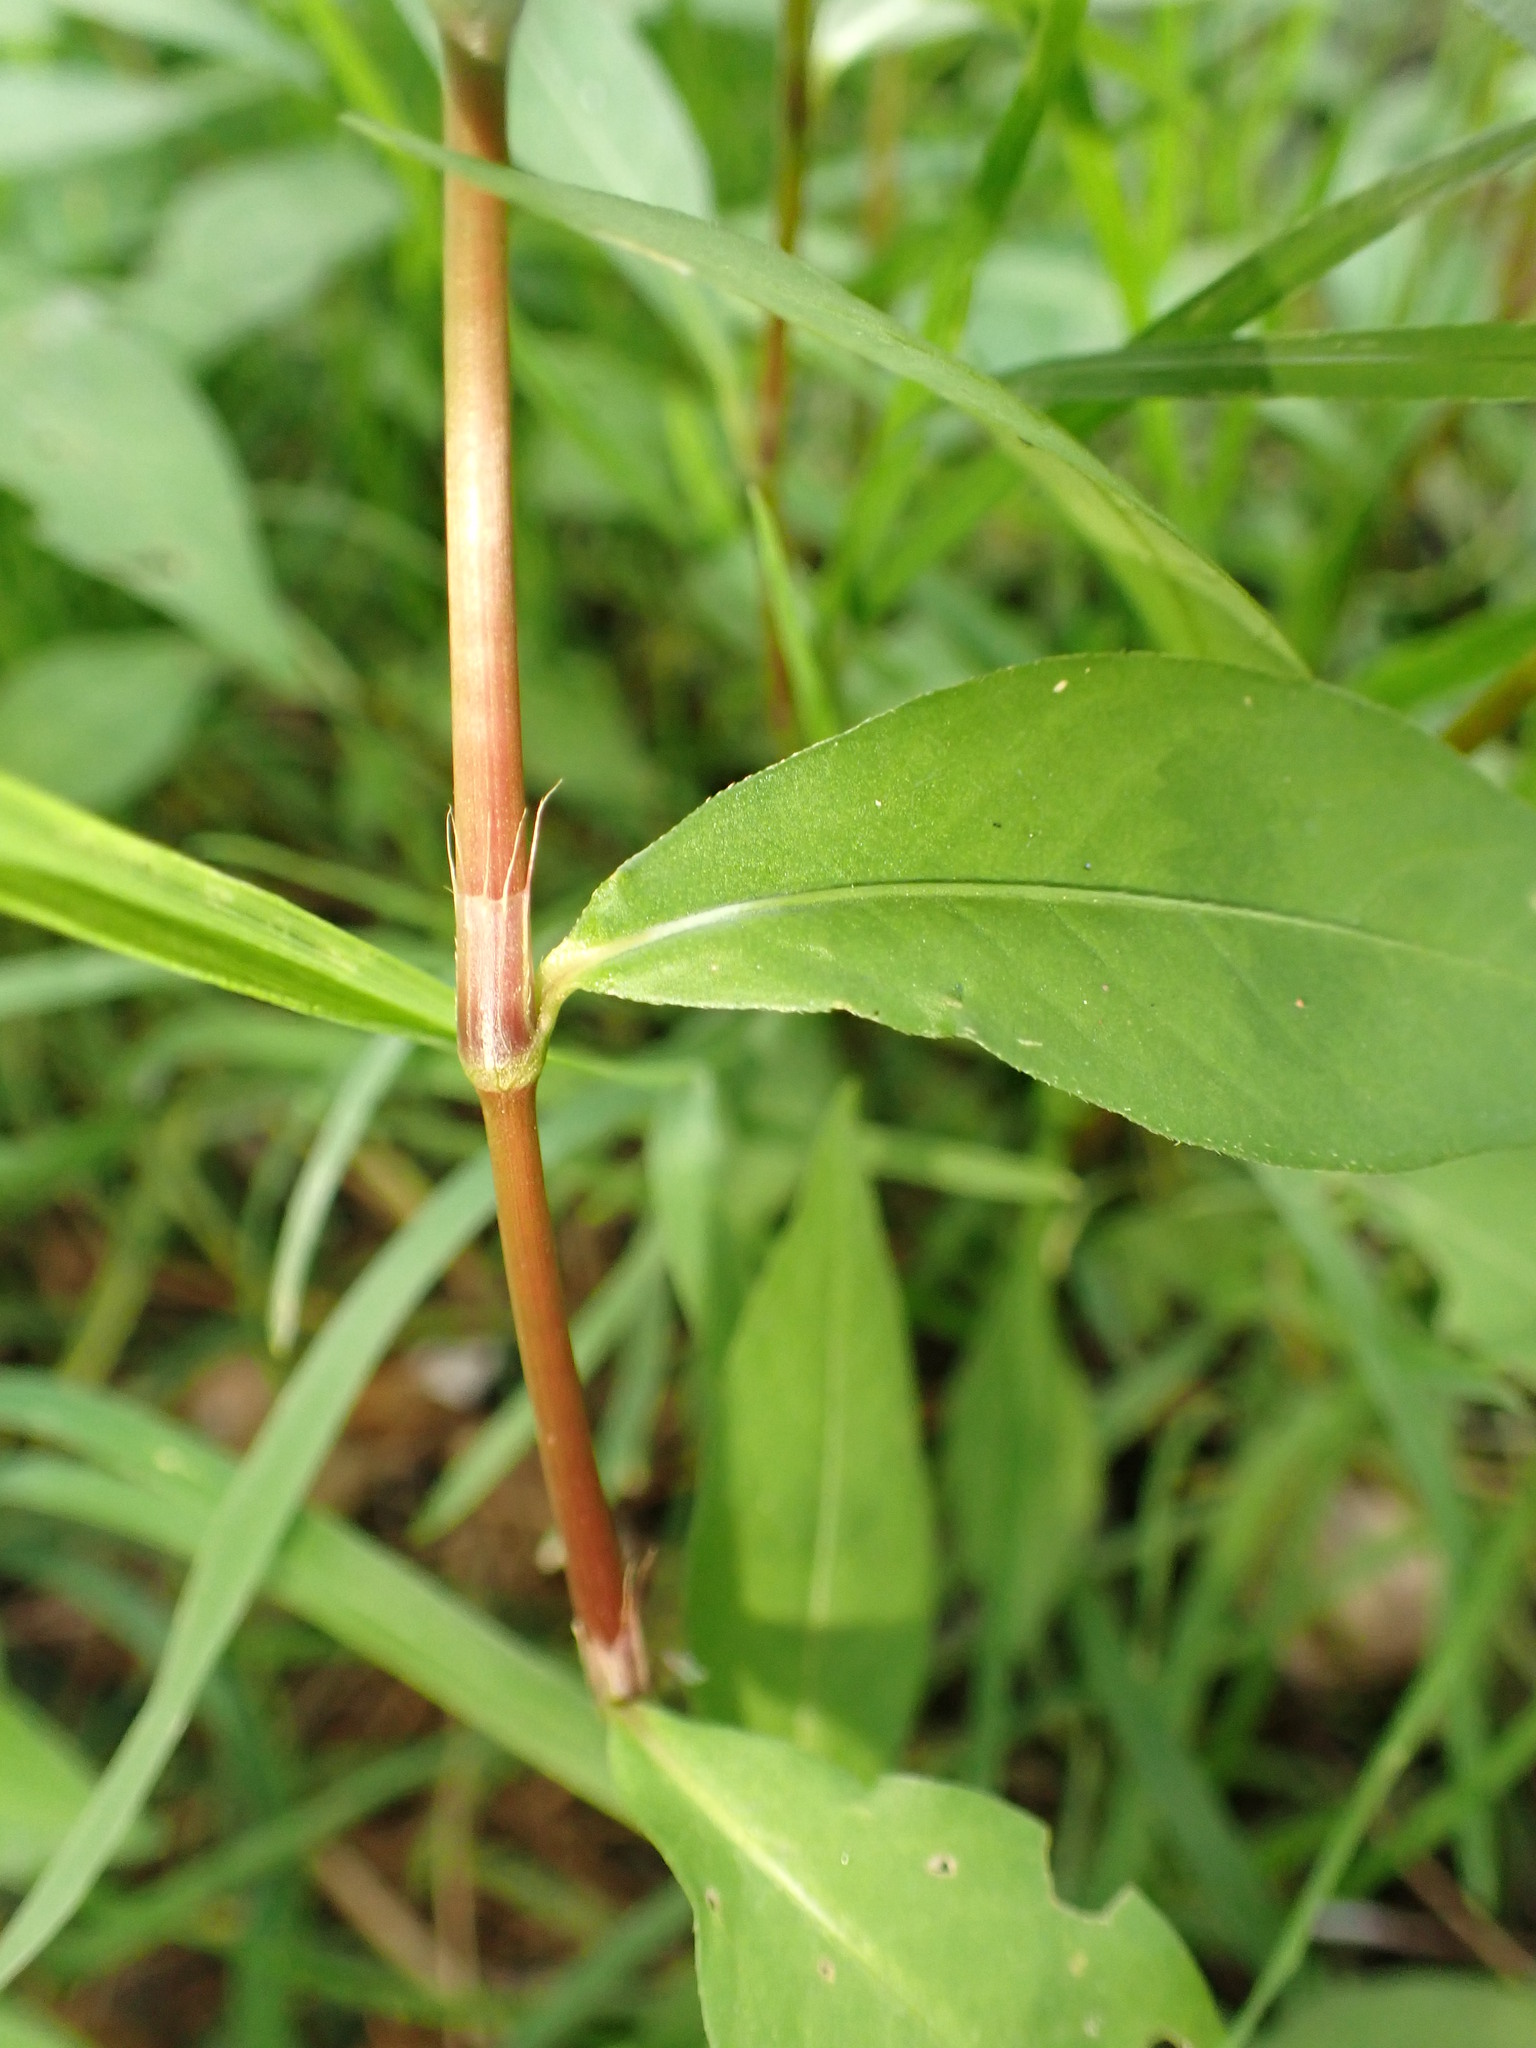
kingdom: Plantae
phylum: Tracheophyta
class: Magnoliopsida
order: Caryophyllales
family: Polygonaceae
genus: Persicaria
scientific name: Persicaria longiseta
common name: Bristly lady's-thumb
